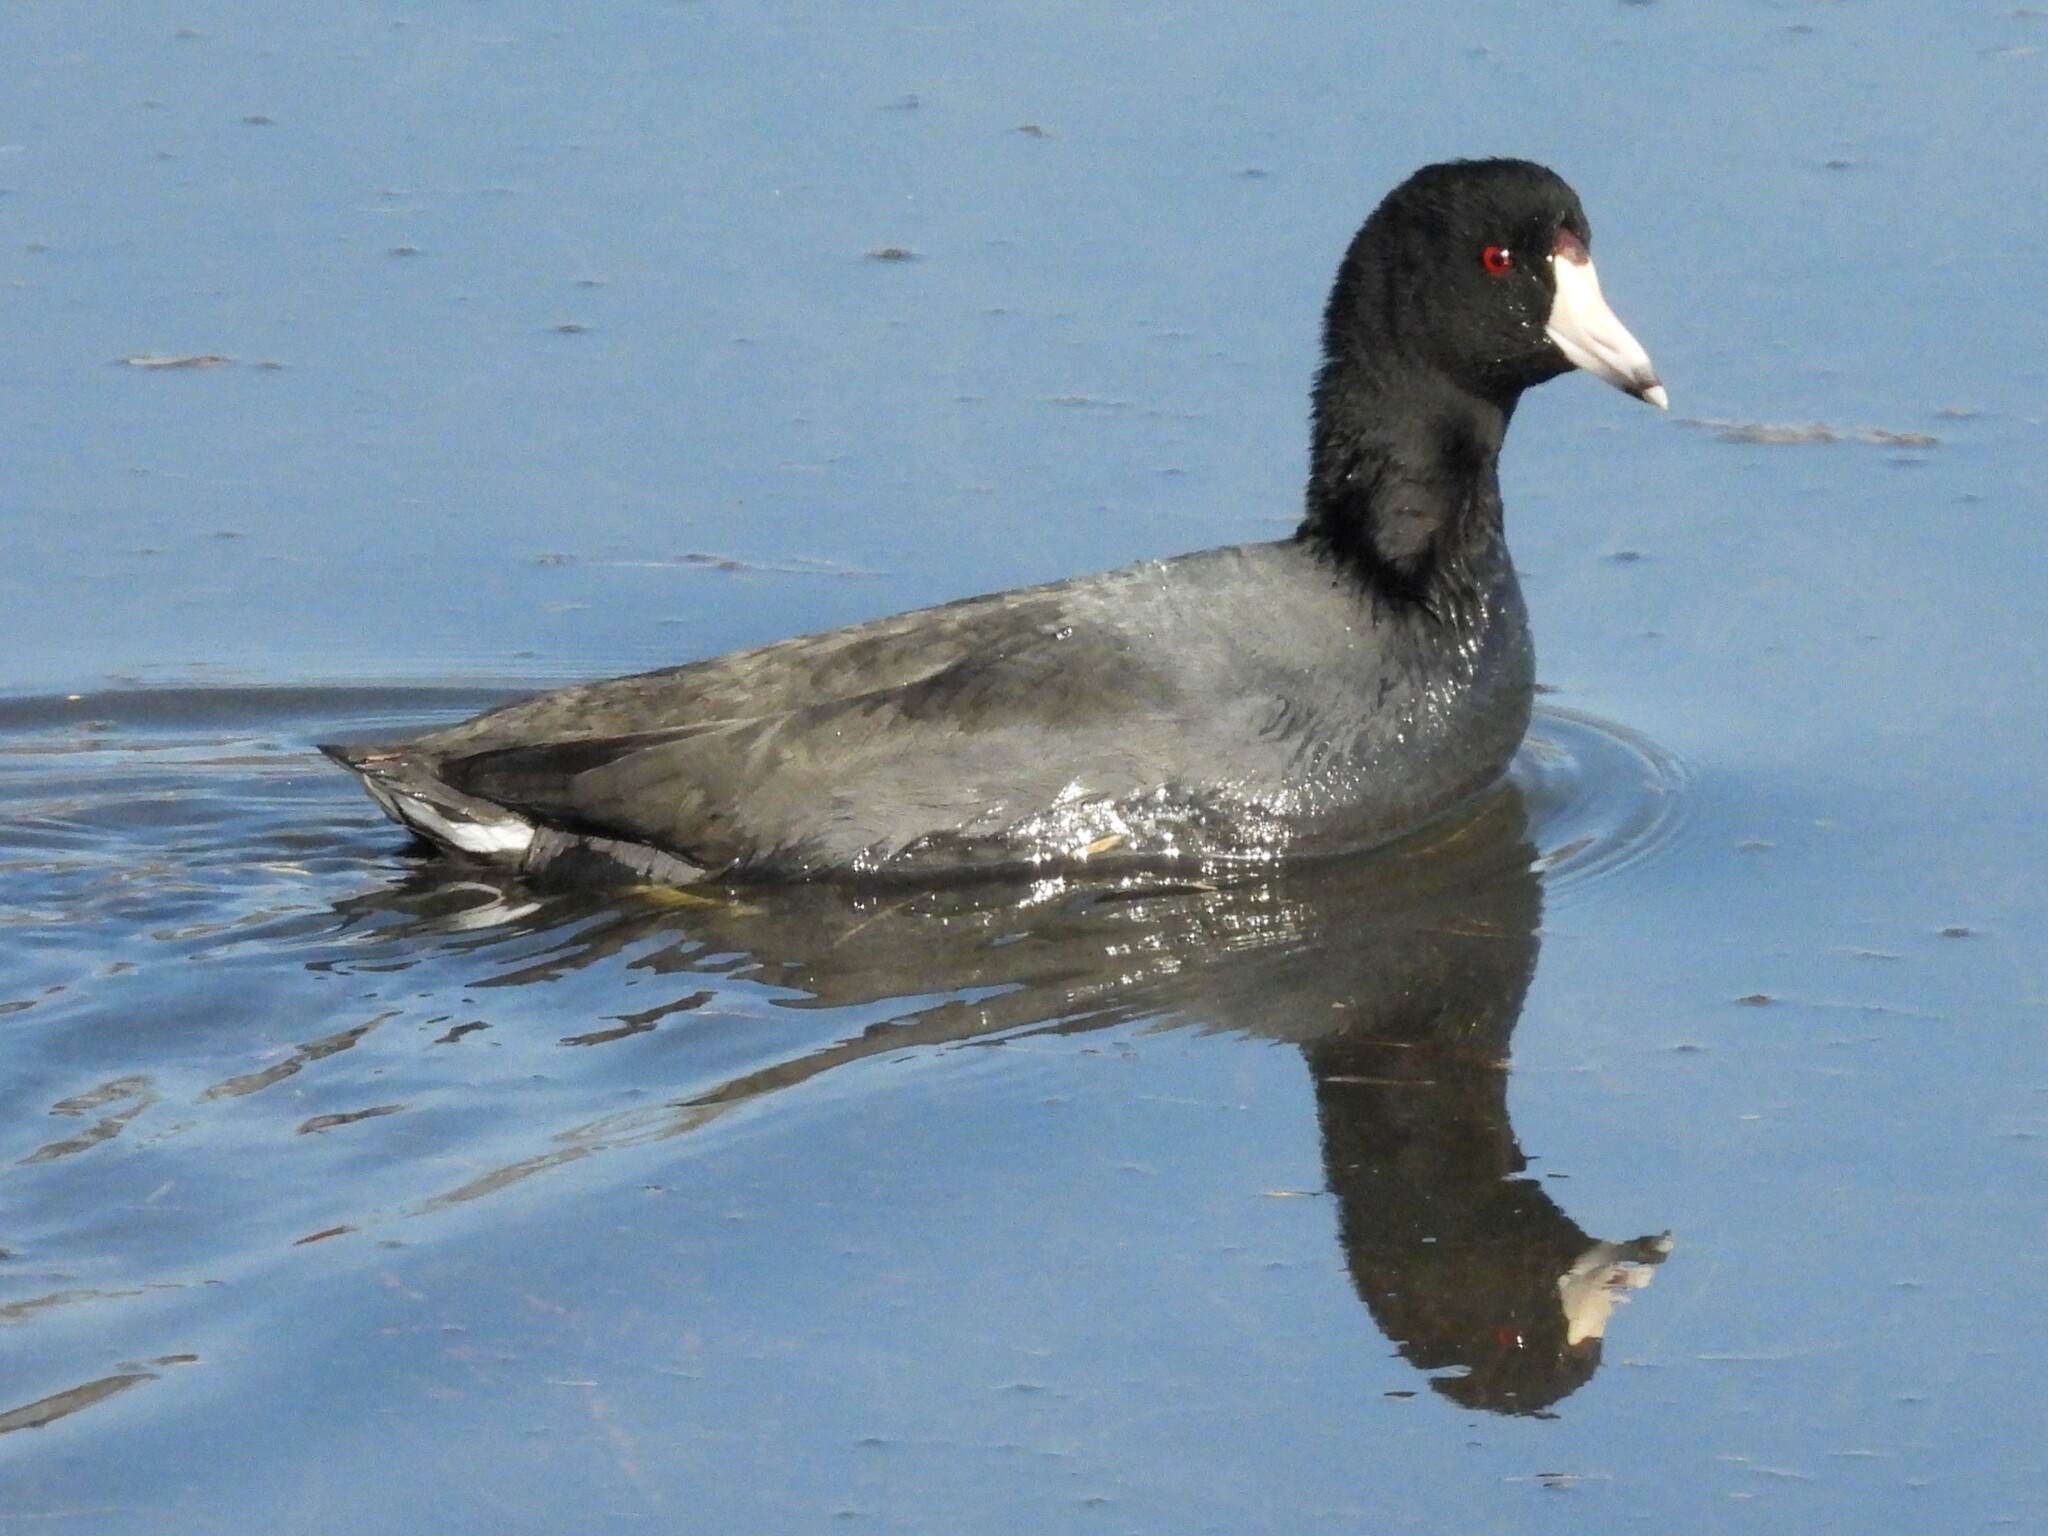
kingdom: Animalia
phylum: Chordata
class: Aves
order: Gruiformes
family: Rallidae
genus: Fulica
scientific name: Fulica americana
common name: American coot
